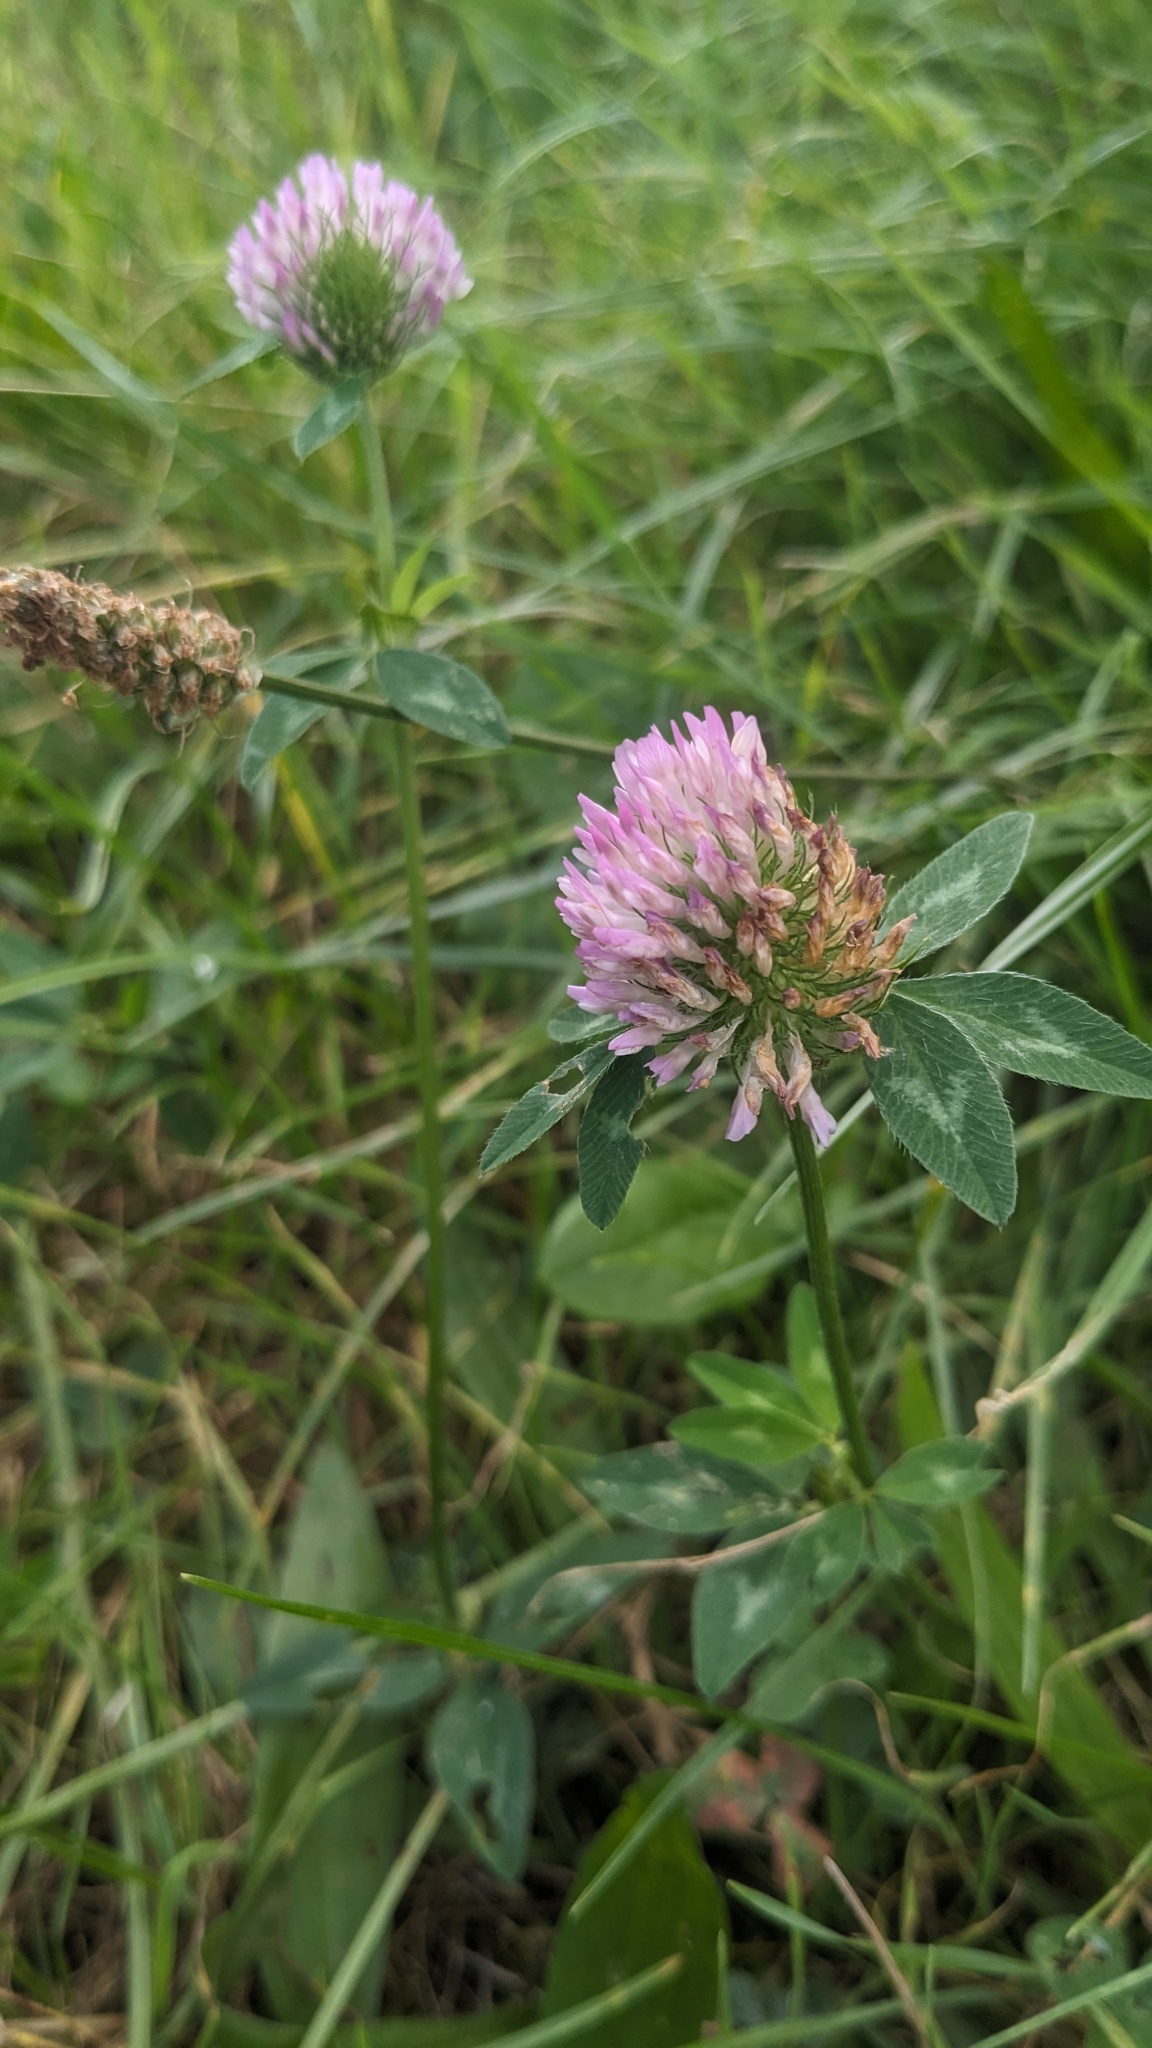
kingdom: Plantae
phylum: Tracheophyta
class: Magnoliopsida
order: Fabales
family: Fabaceae
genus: Trifolium
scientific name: Trifolium pratense
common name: Red clover
